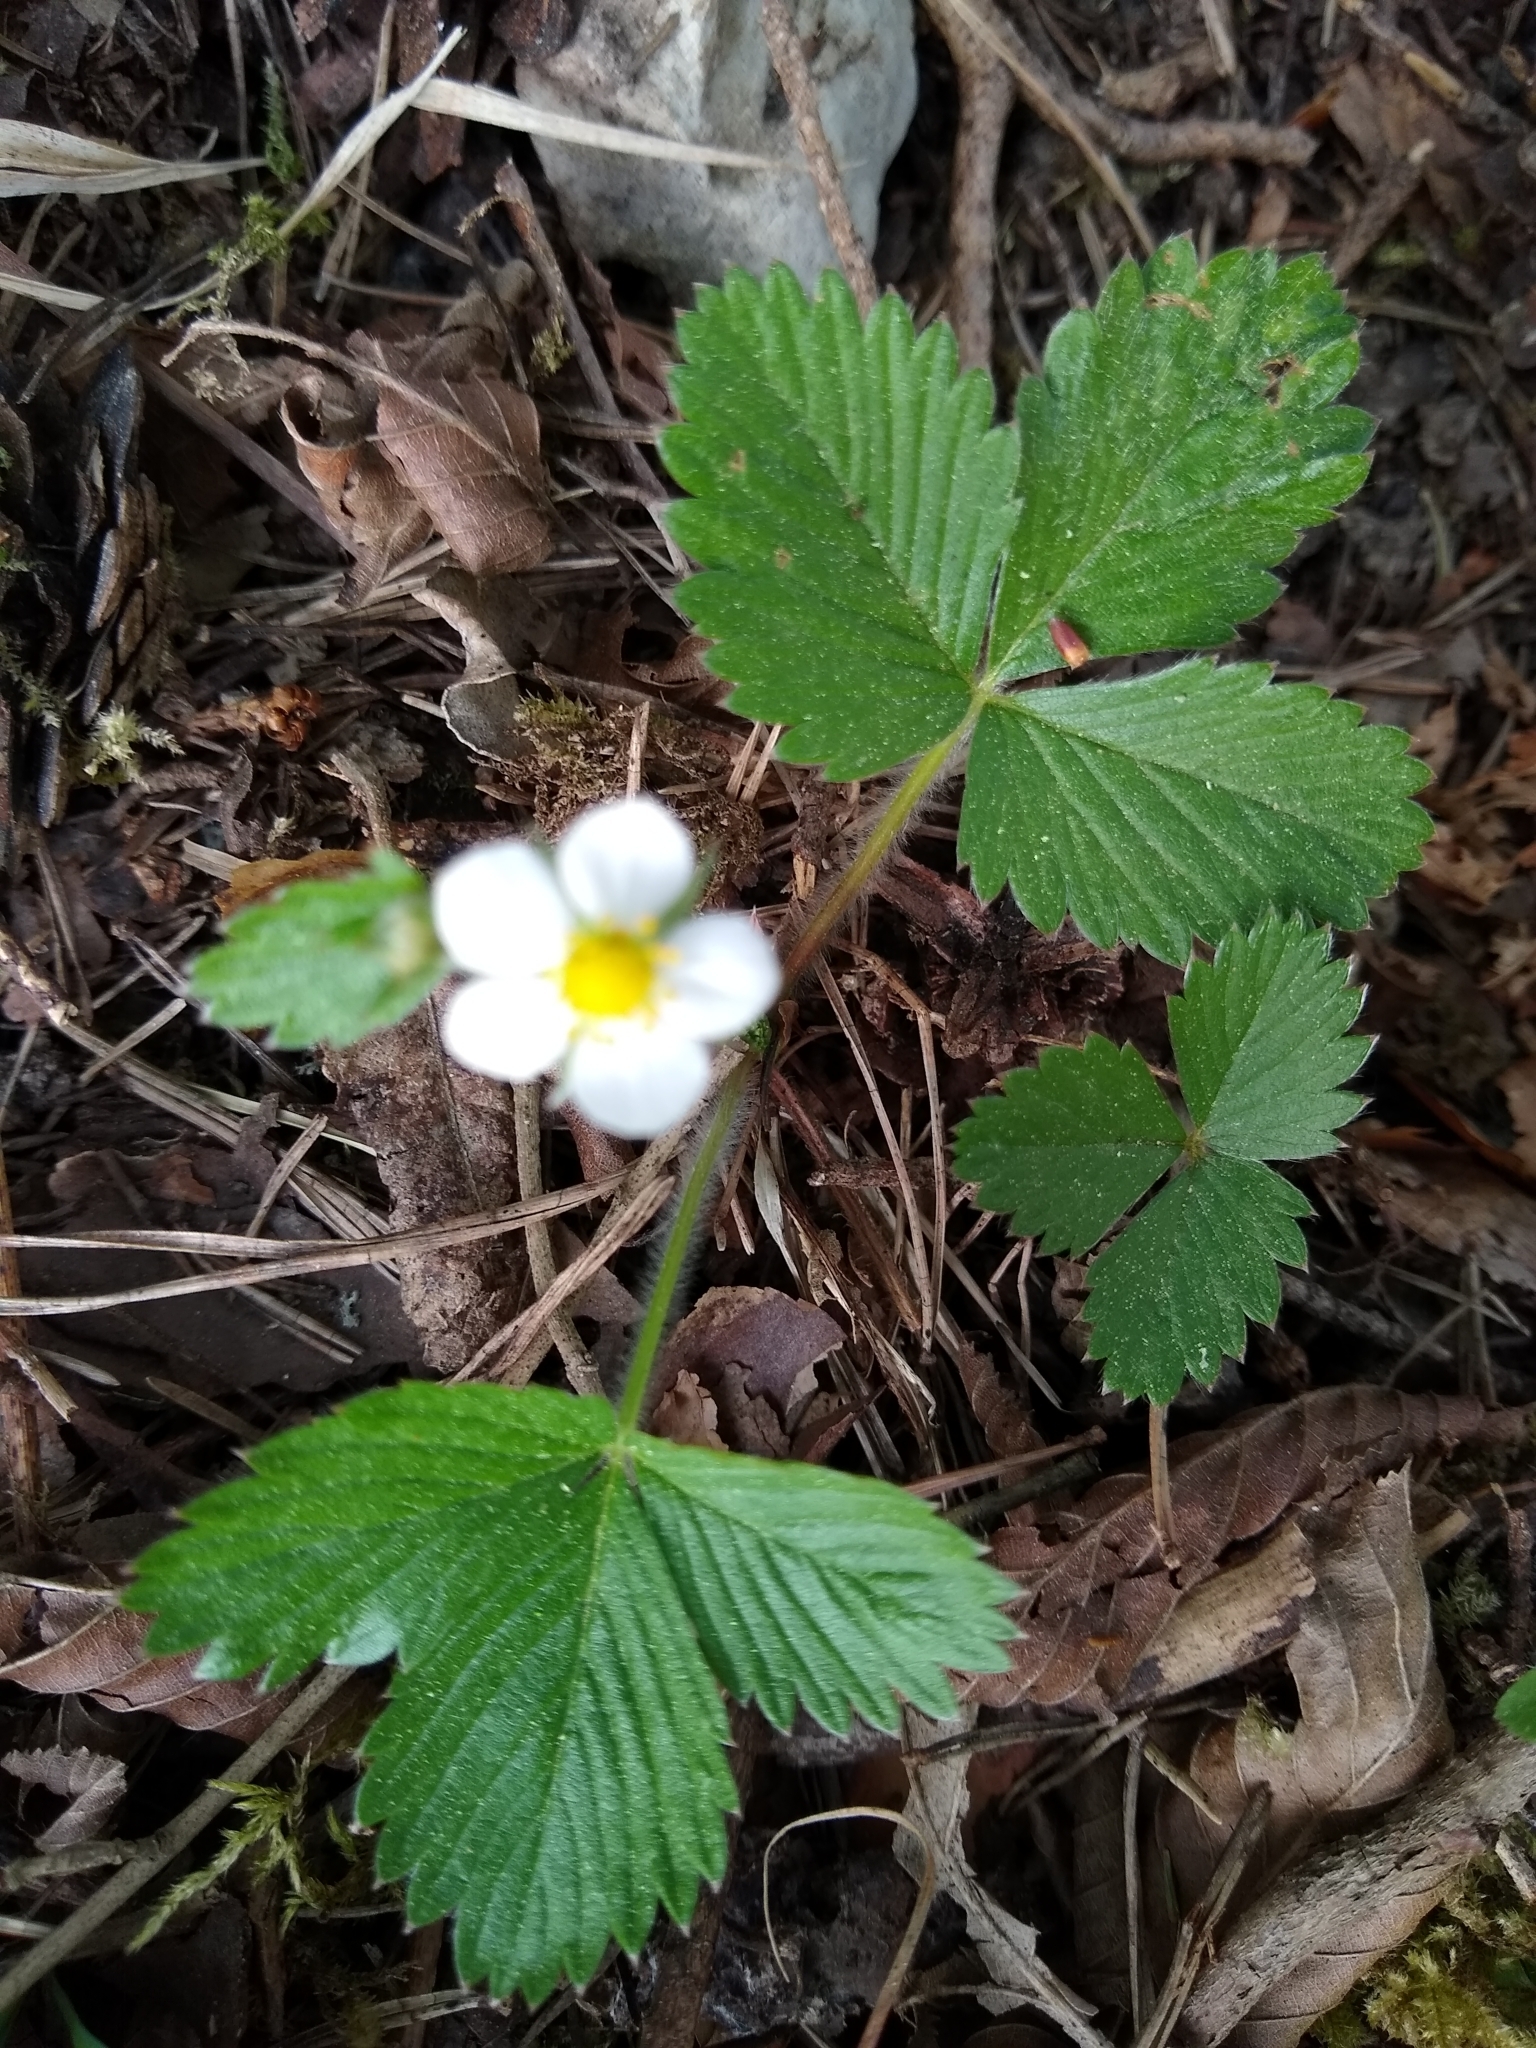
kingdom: Plantae
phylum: Tracheophyta
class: Magnoliopsida
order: Rosales
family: Rosaceae
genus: Fragaria
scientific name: Fragaria vesca
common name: Wild strawberry
